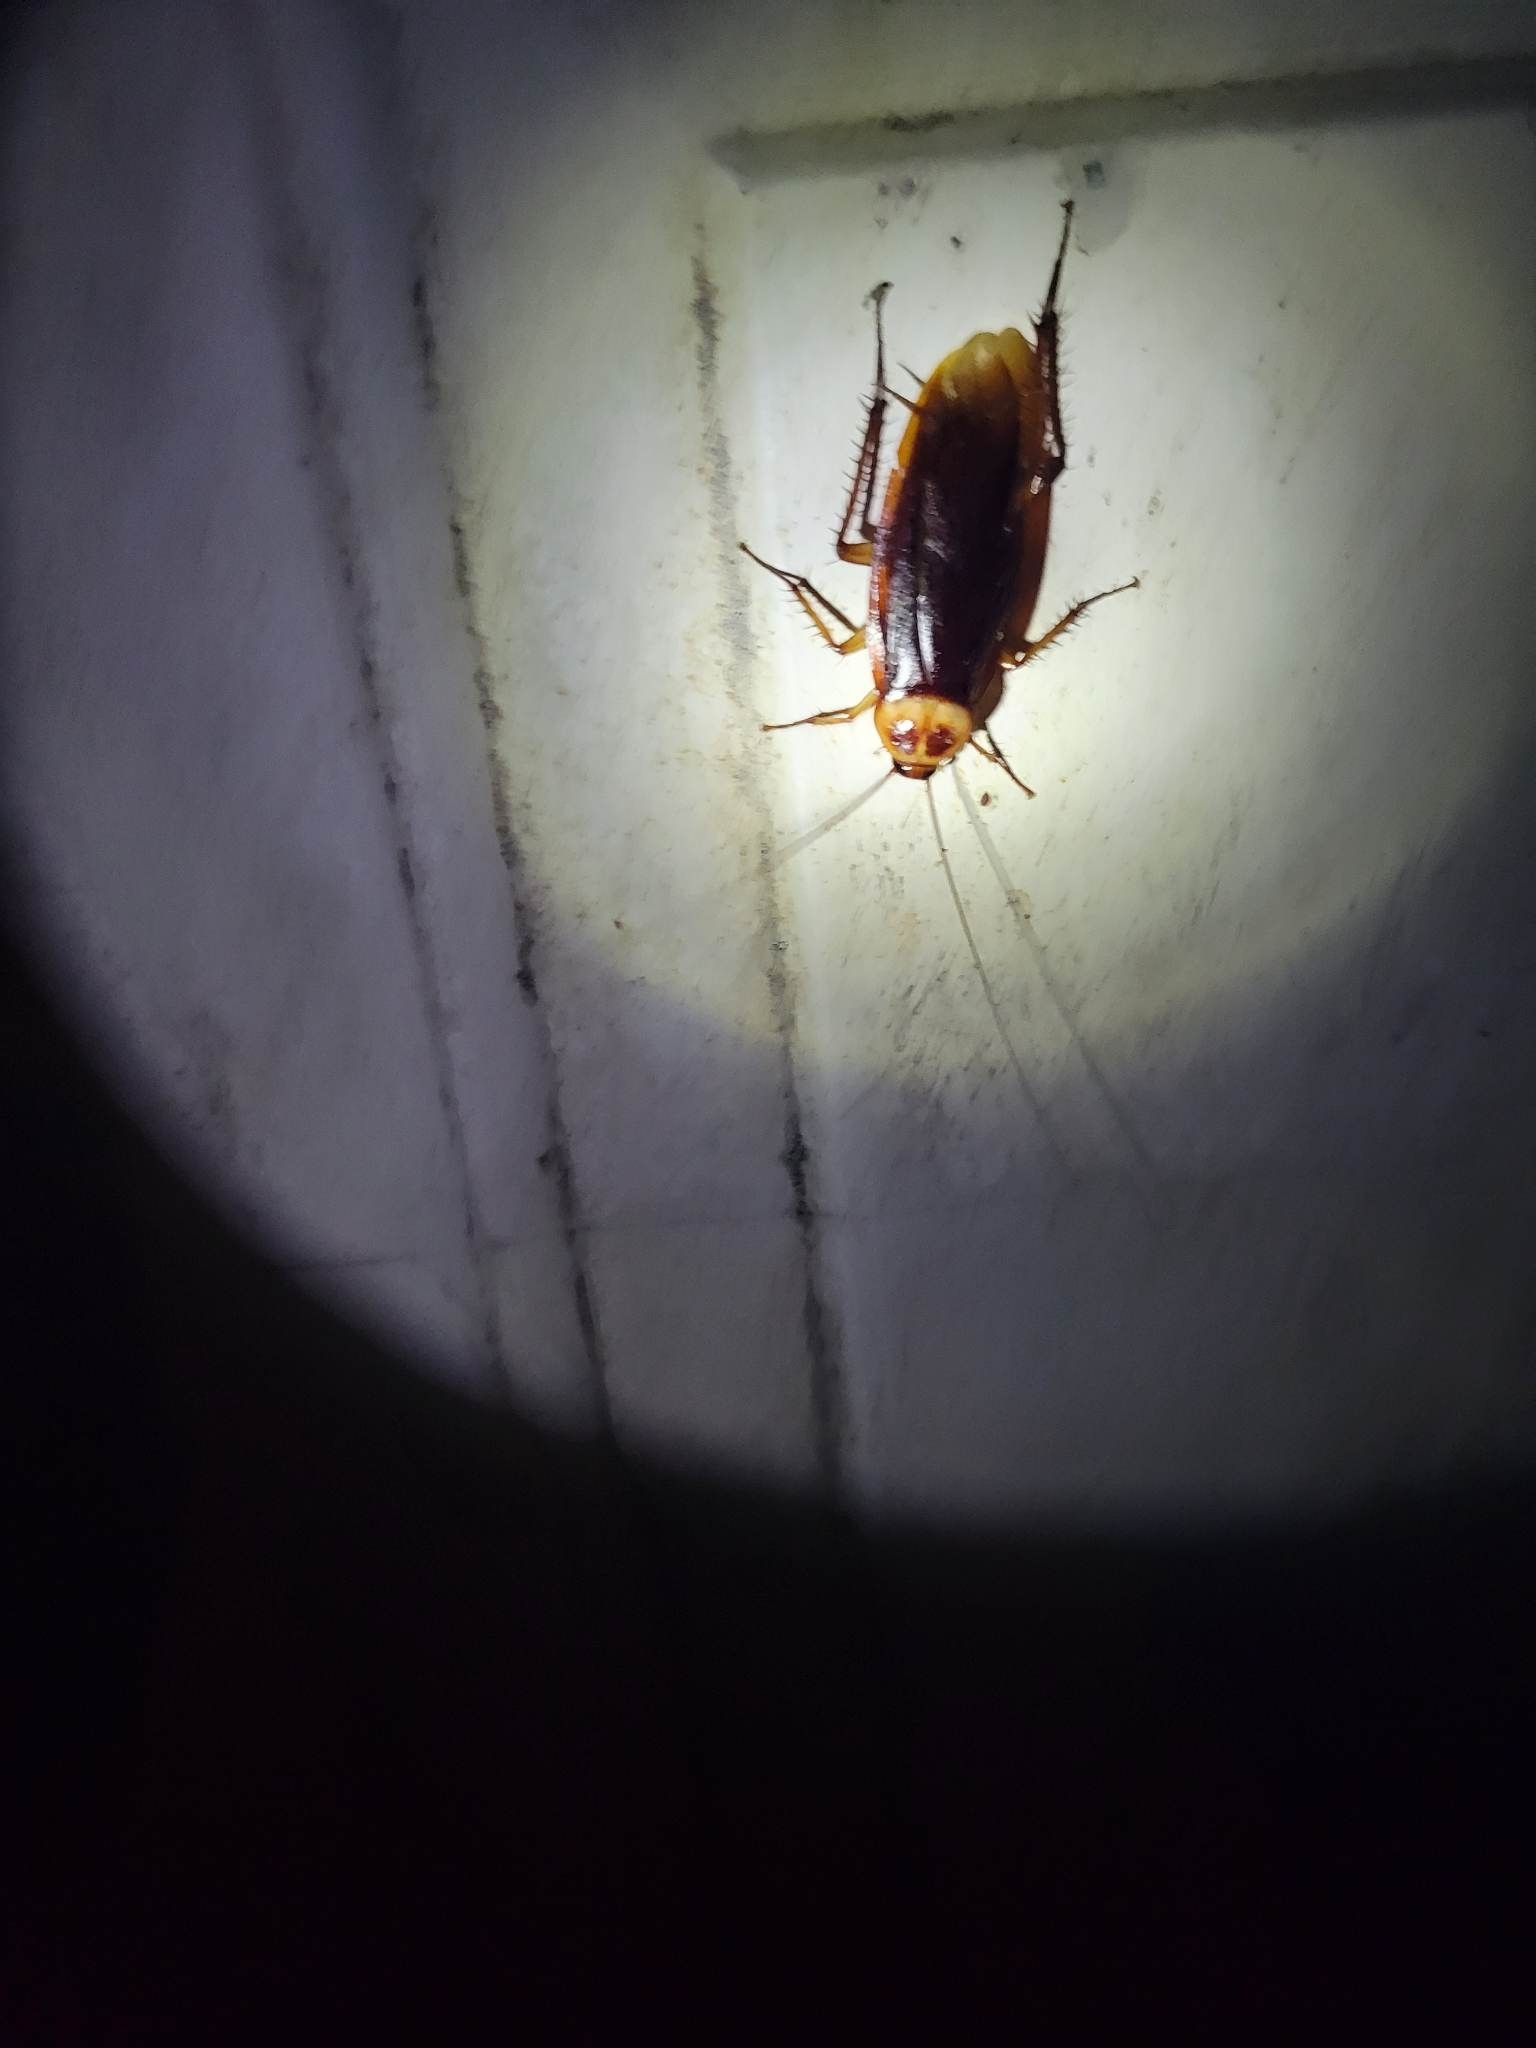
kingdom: Animalia
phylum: Arthropoda
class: Insecta
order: Blattodea
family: Blattidae
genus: Periplaneta
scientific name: Periplaneta americana
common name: American cockroach
